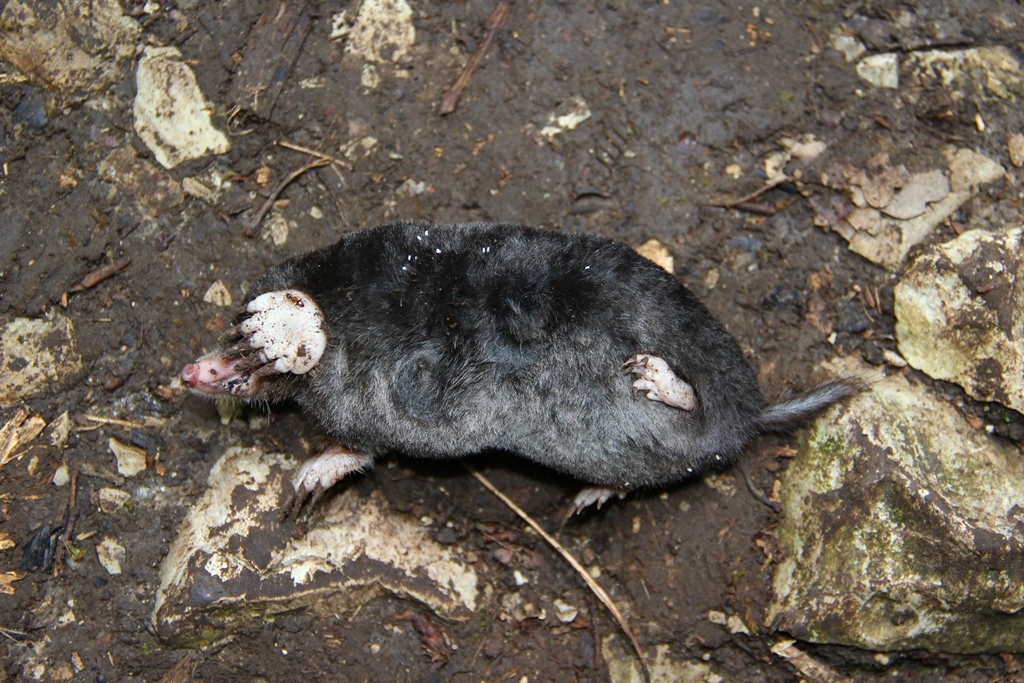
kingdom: Animalia
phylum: Chordata
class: Mammalia
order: Soricomorpha
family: Talpidae
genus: Talpa
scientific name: Talpa caucasica
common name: Caucasian mole
